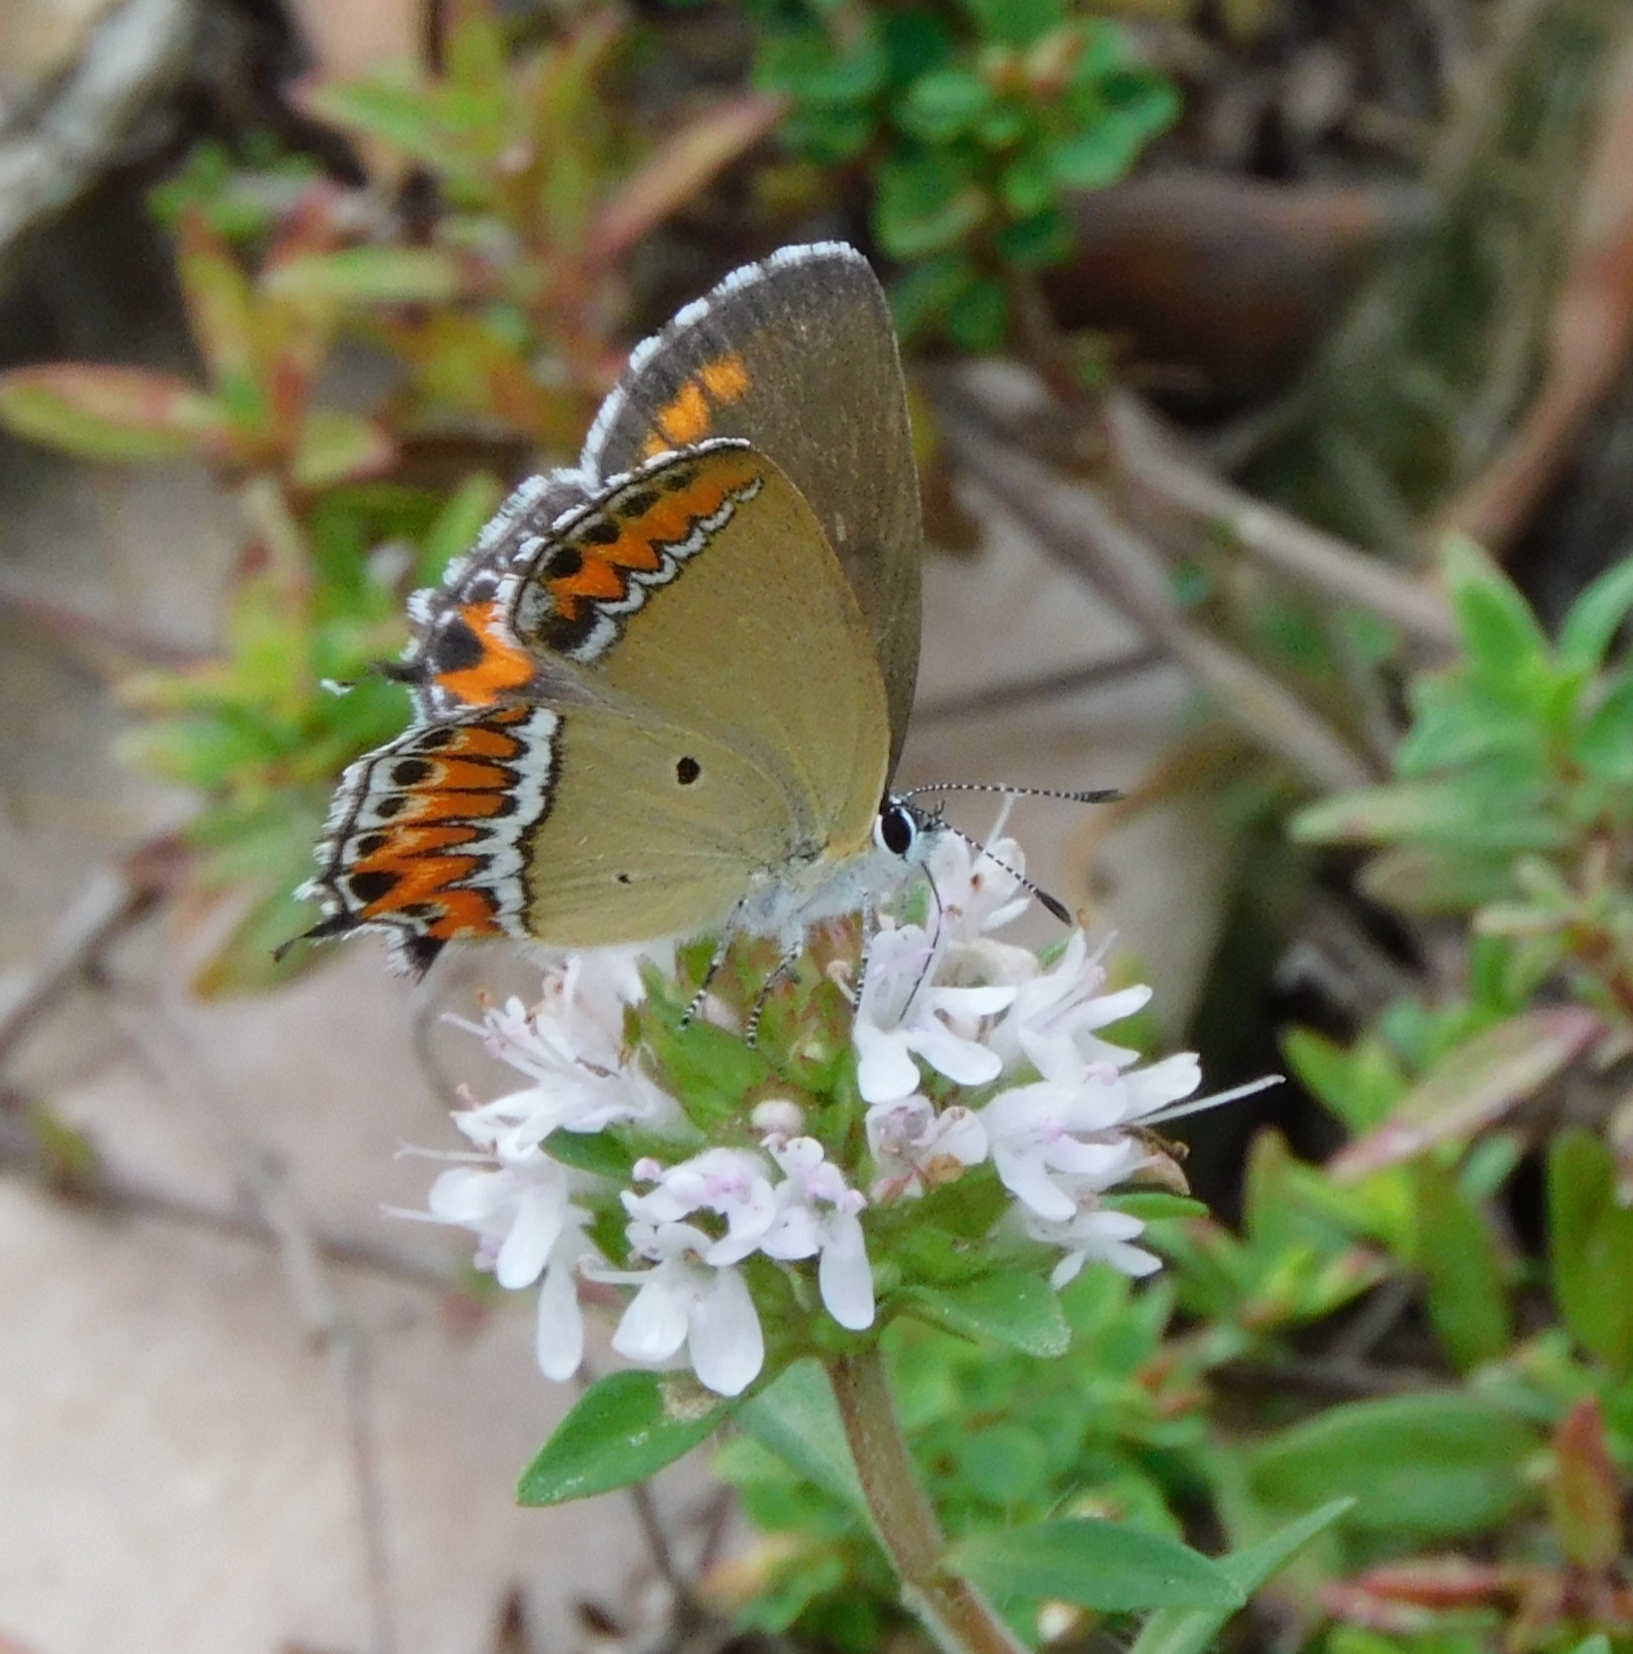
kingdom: Animalia
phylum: Arthropoda
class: Insecta
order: Lepidoptera
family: Lycaenidae
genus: Heliophorus
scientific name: Heliophorus sena
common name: Sorrel sapphire
